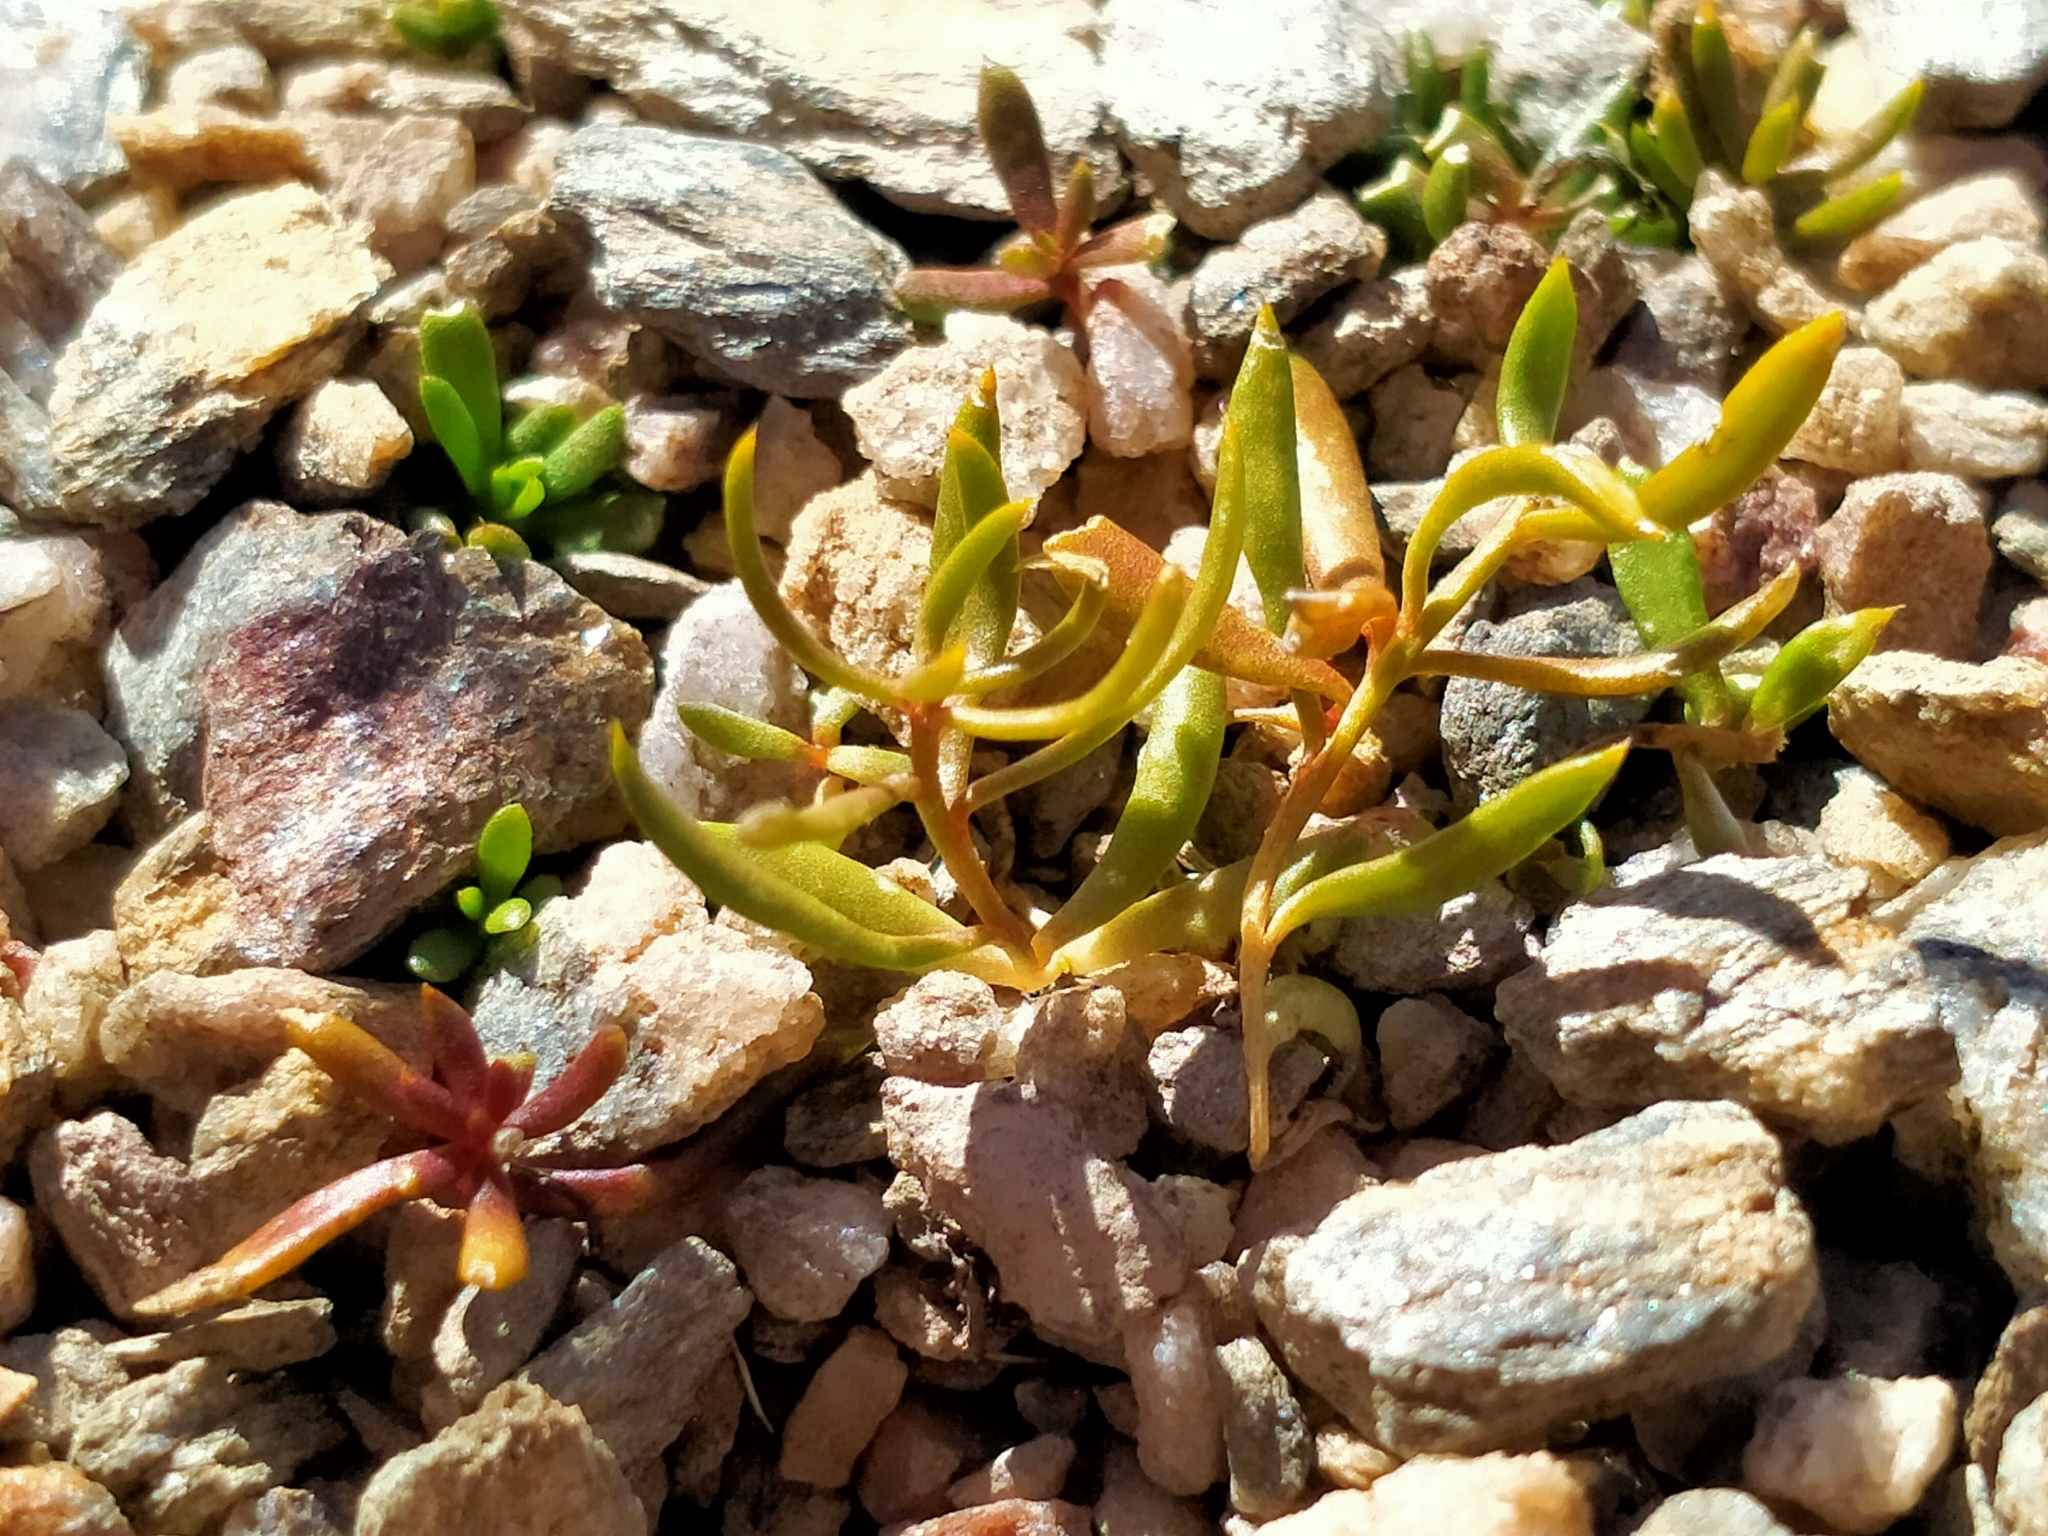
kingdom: Plantae
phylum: Tracheophyta
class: Magnoliopsida
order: Celastrales
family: Celastraceae
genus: Stackhousia
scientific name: Stackhousia minima
